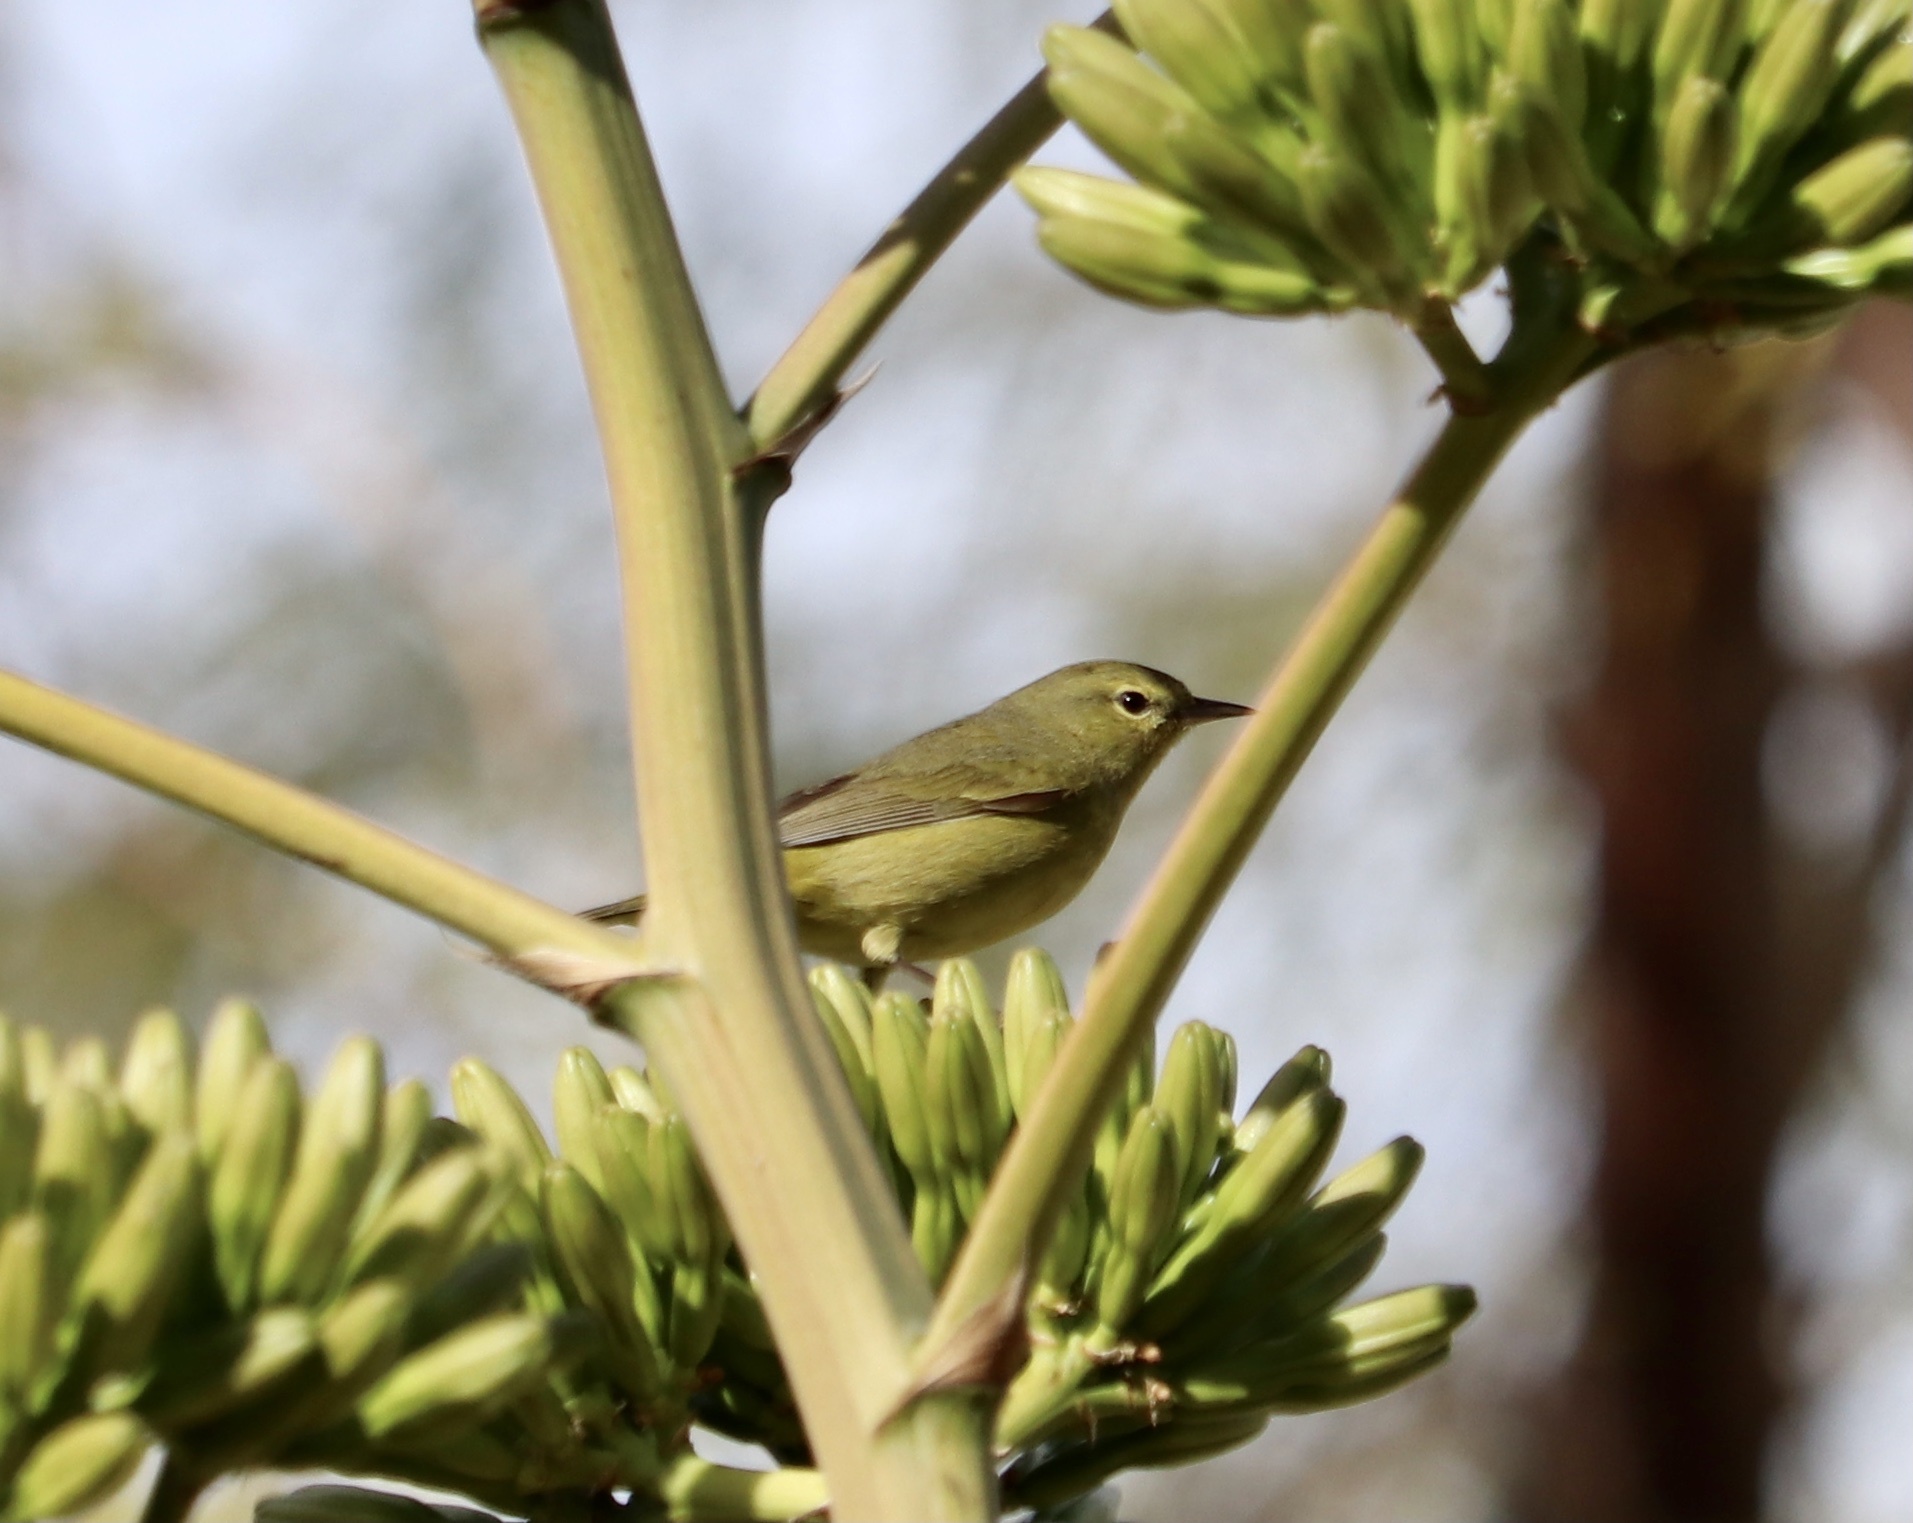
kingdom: Animalia
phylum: Chordata
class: Aves
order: Passeriformes
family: Parulidae
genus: Leiothlypis
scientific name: Leiothlypis celata
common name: Orange-crowned warbler
